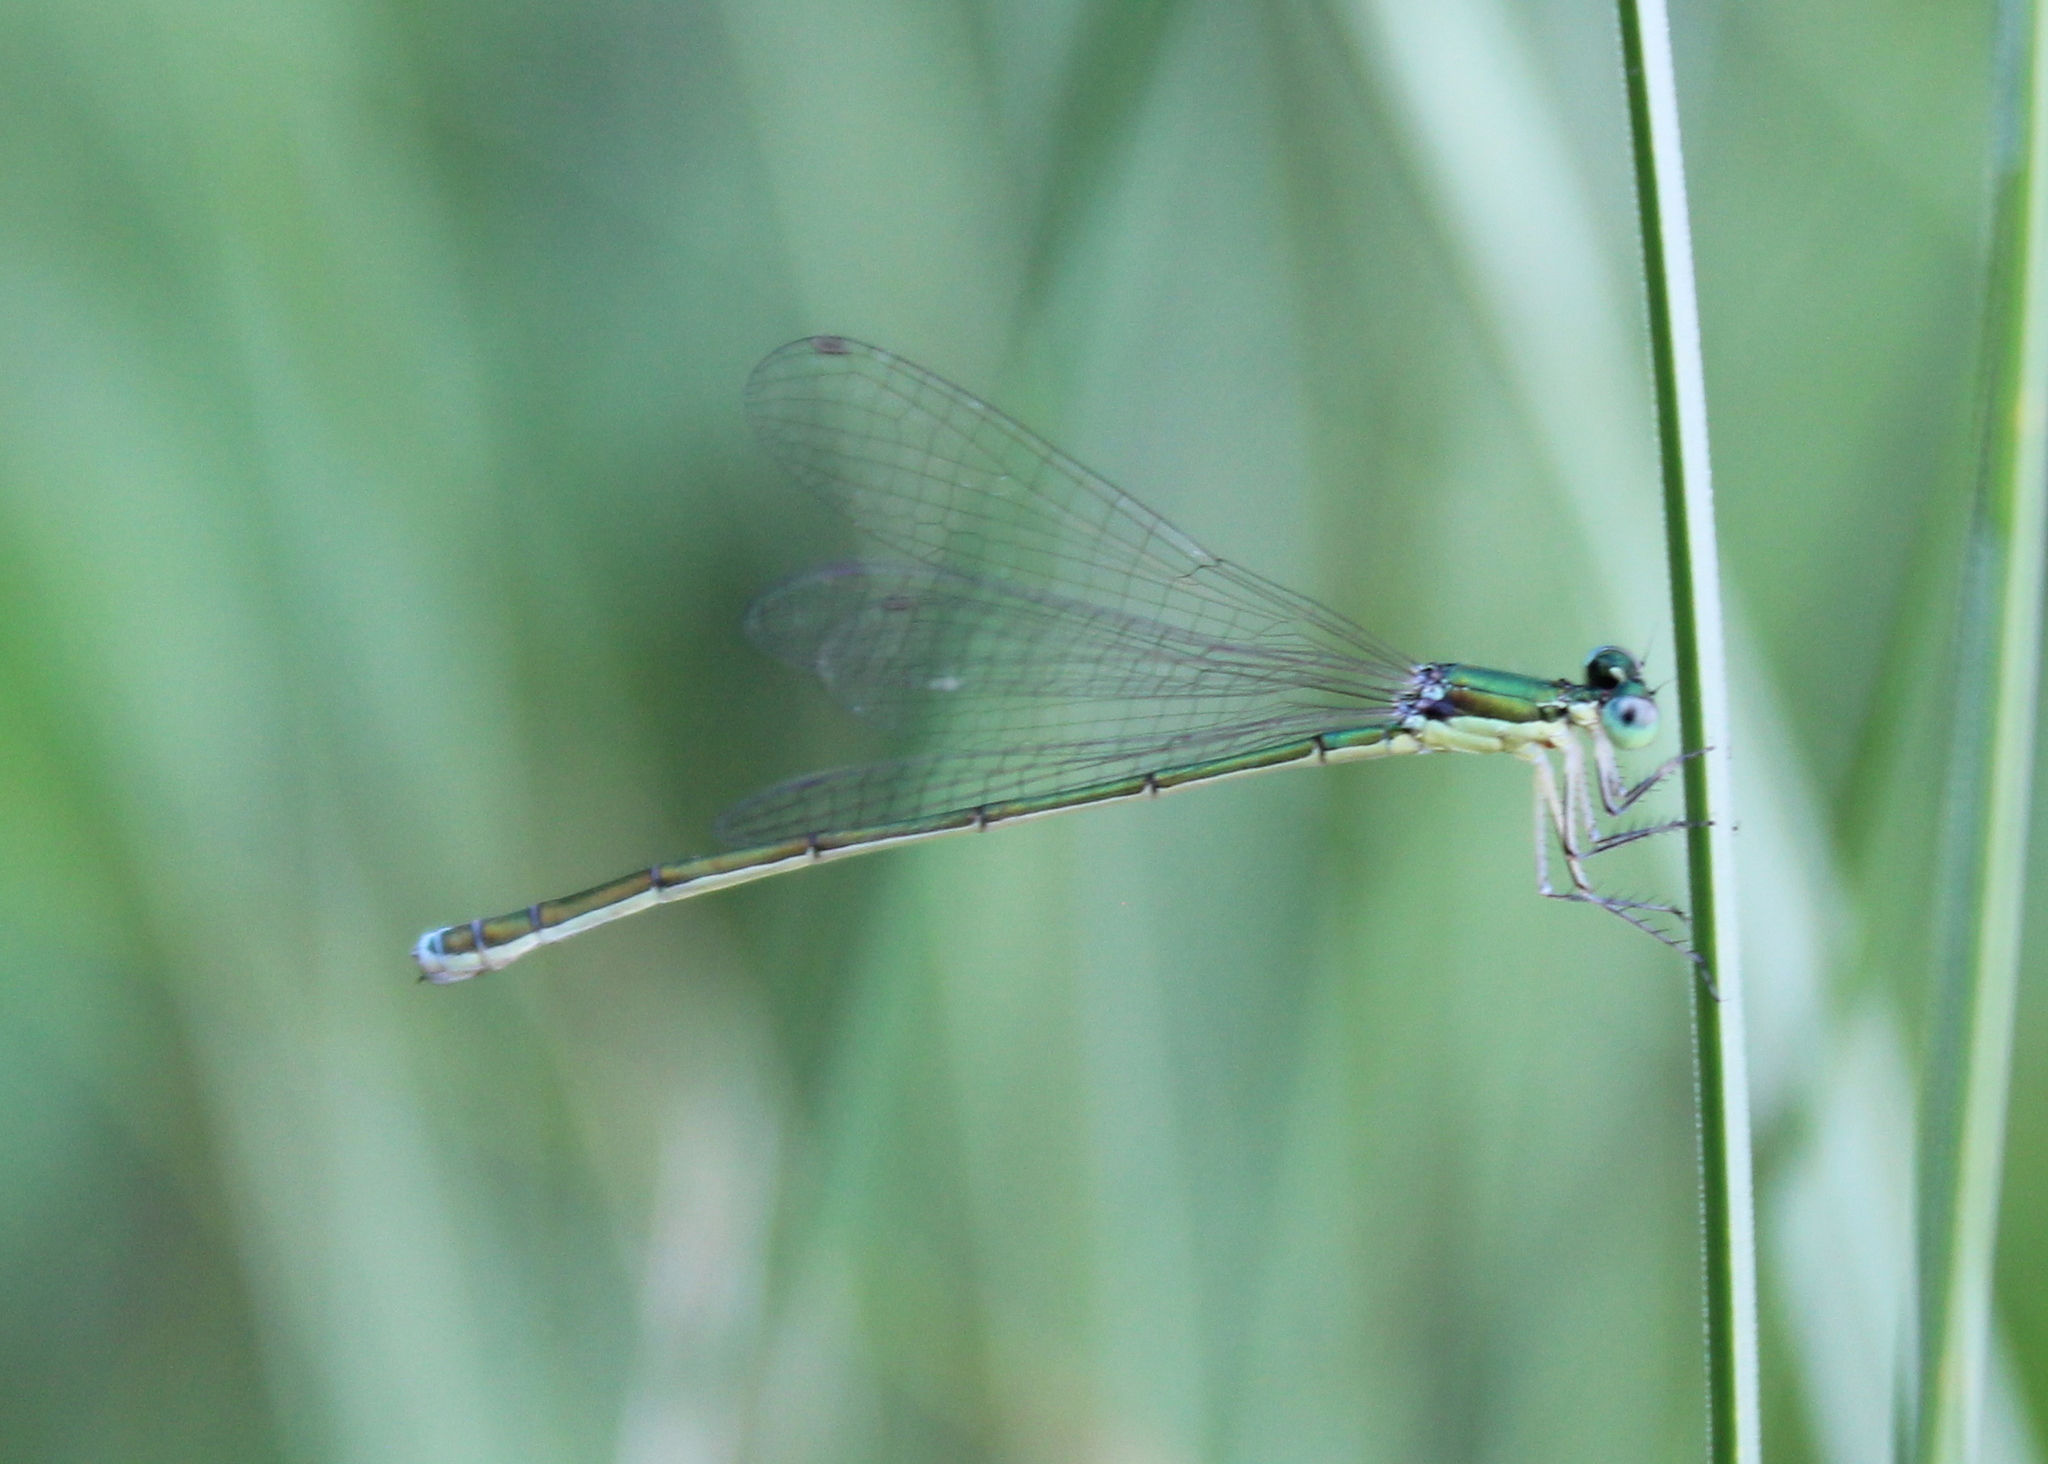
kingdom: Animalia
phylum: Arthropoda
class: Insecta
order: Odonata
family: Coenagrionidae
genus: Nehalennia
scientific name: Nehalennia irene
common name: Sedge sprite
